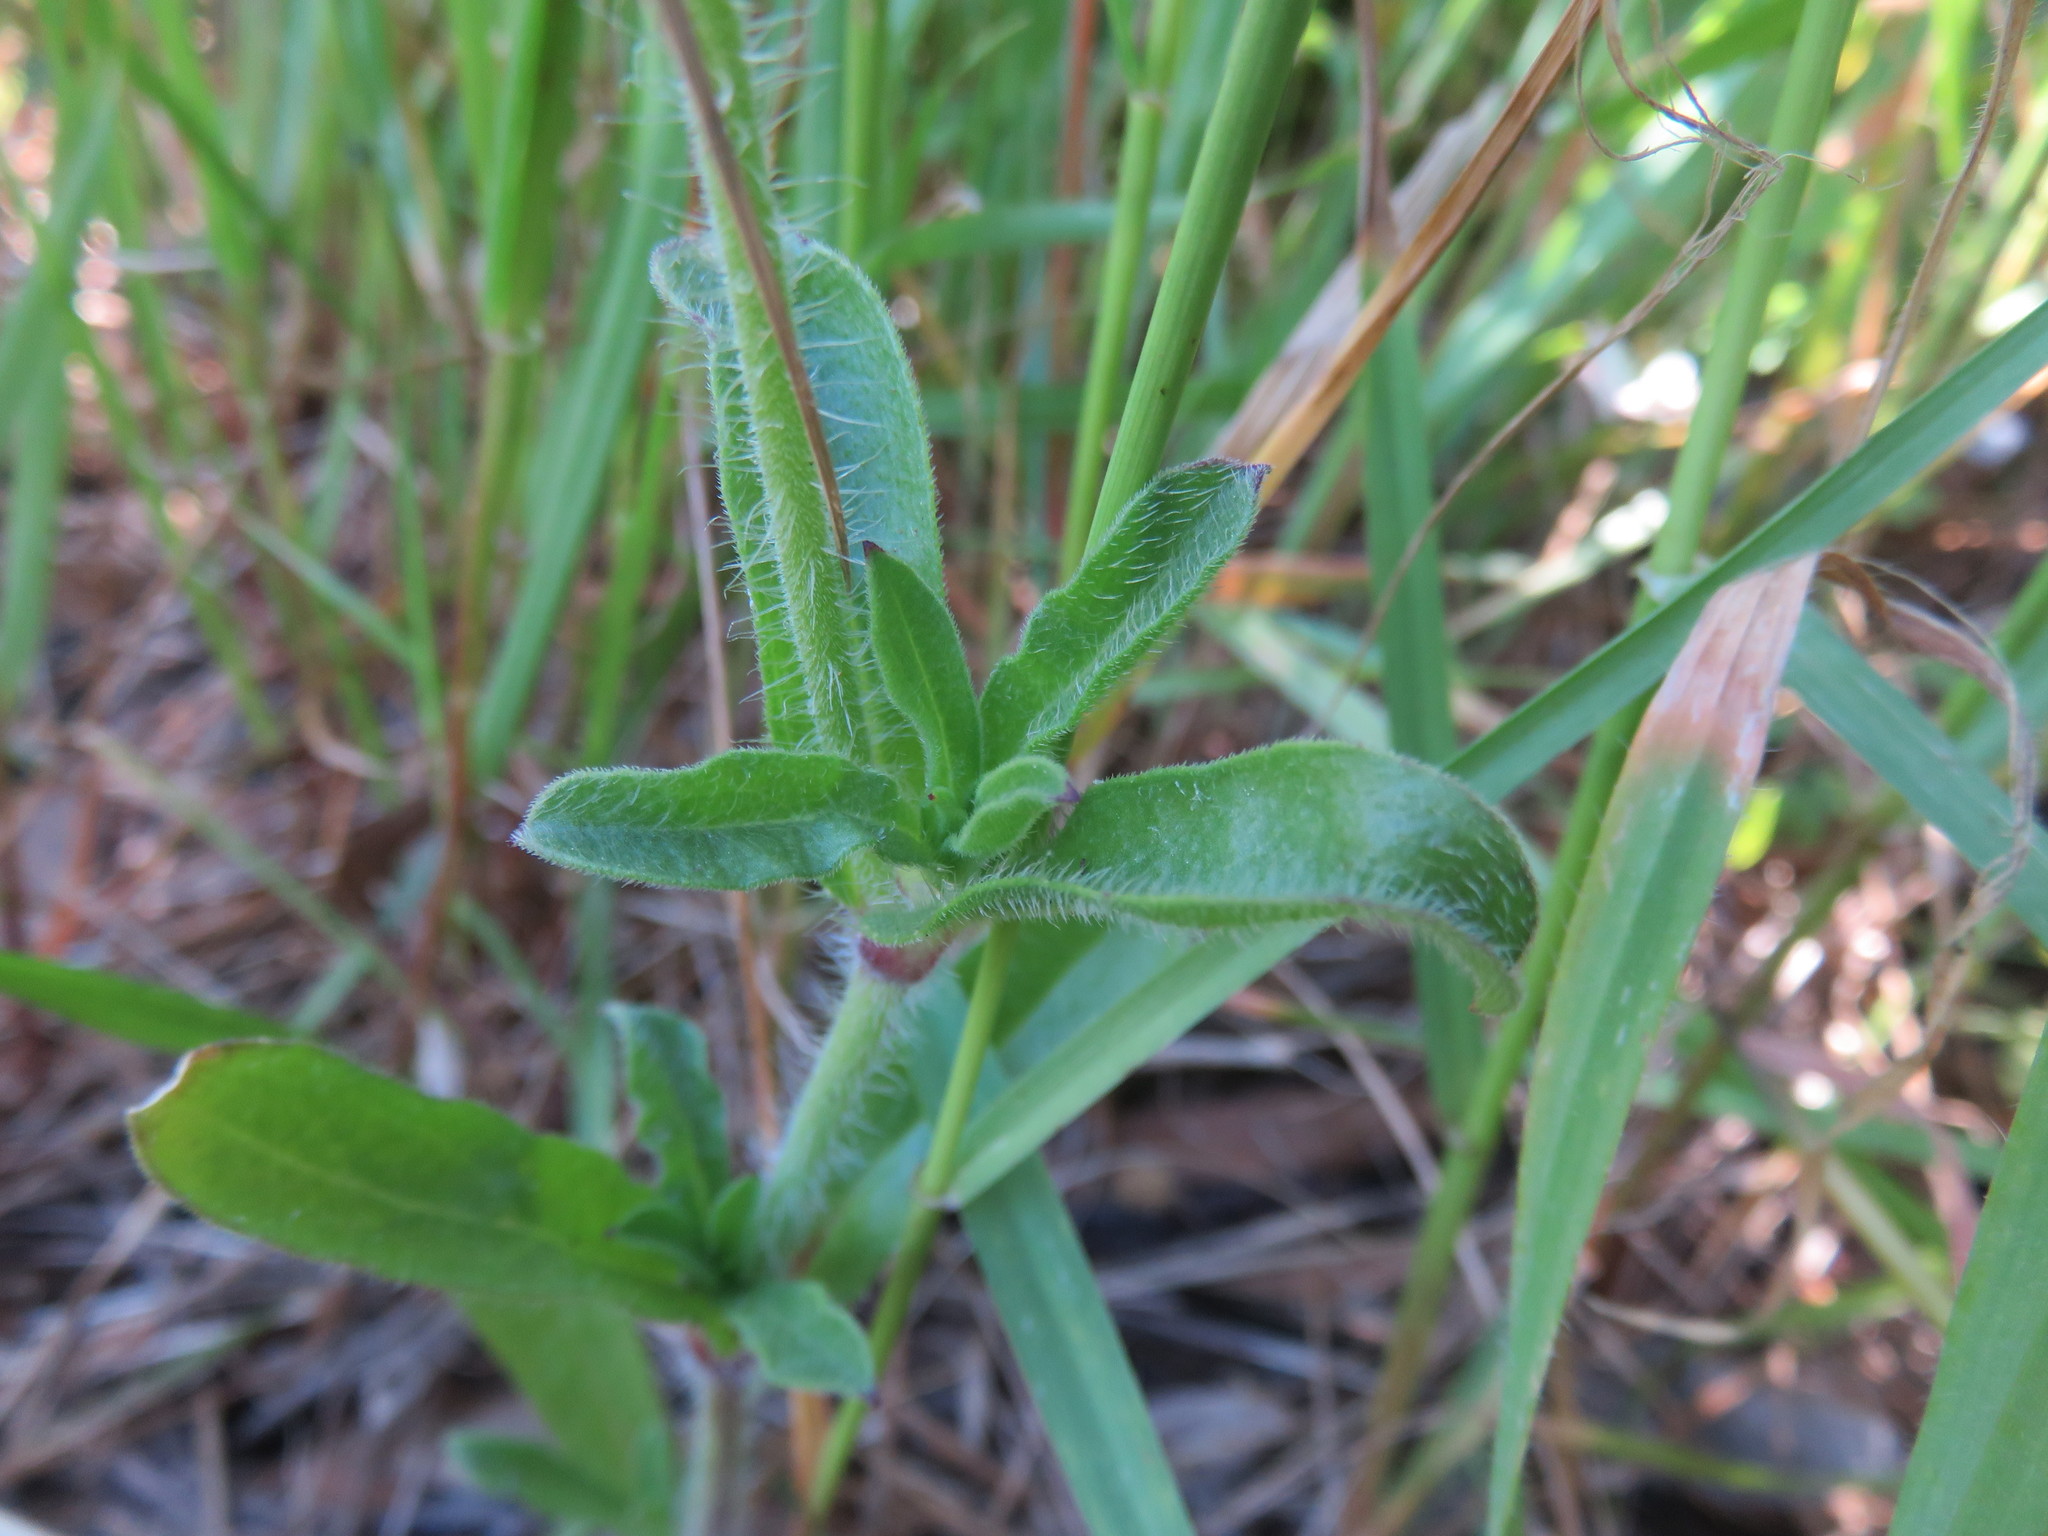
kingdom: Plantae
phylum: Tracheophyta
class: Magnoliopsida
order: Caryophyllales
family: Caryophyllaceae
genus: Silene
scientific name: Silene gallica
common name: Small-flowered catchfly
